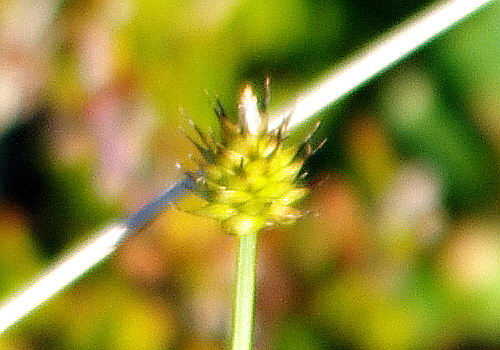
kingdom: Plantae
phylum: Tracheophyta
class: Liliopsida
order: Poales
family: Cyperaceae
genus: Carex
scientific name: Carex capitata
